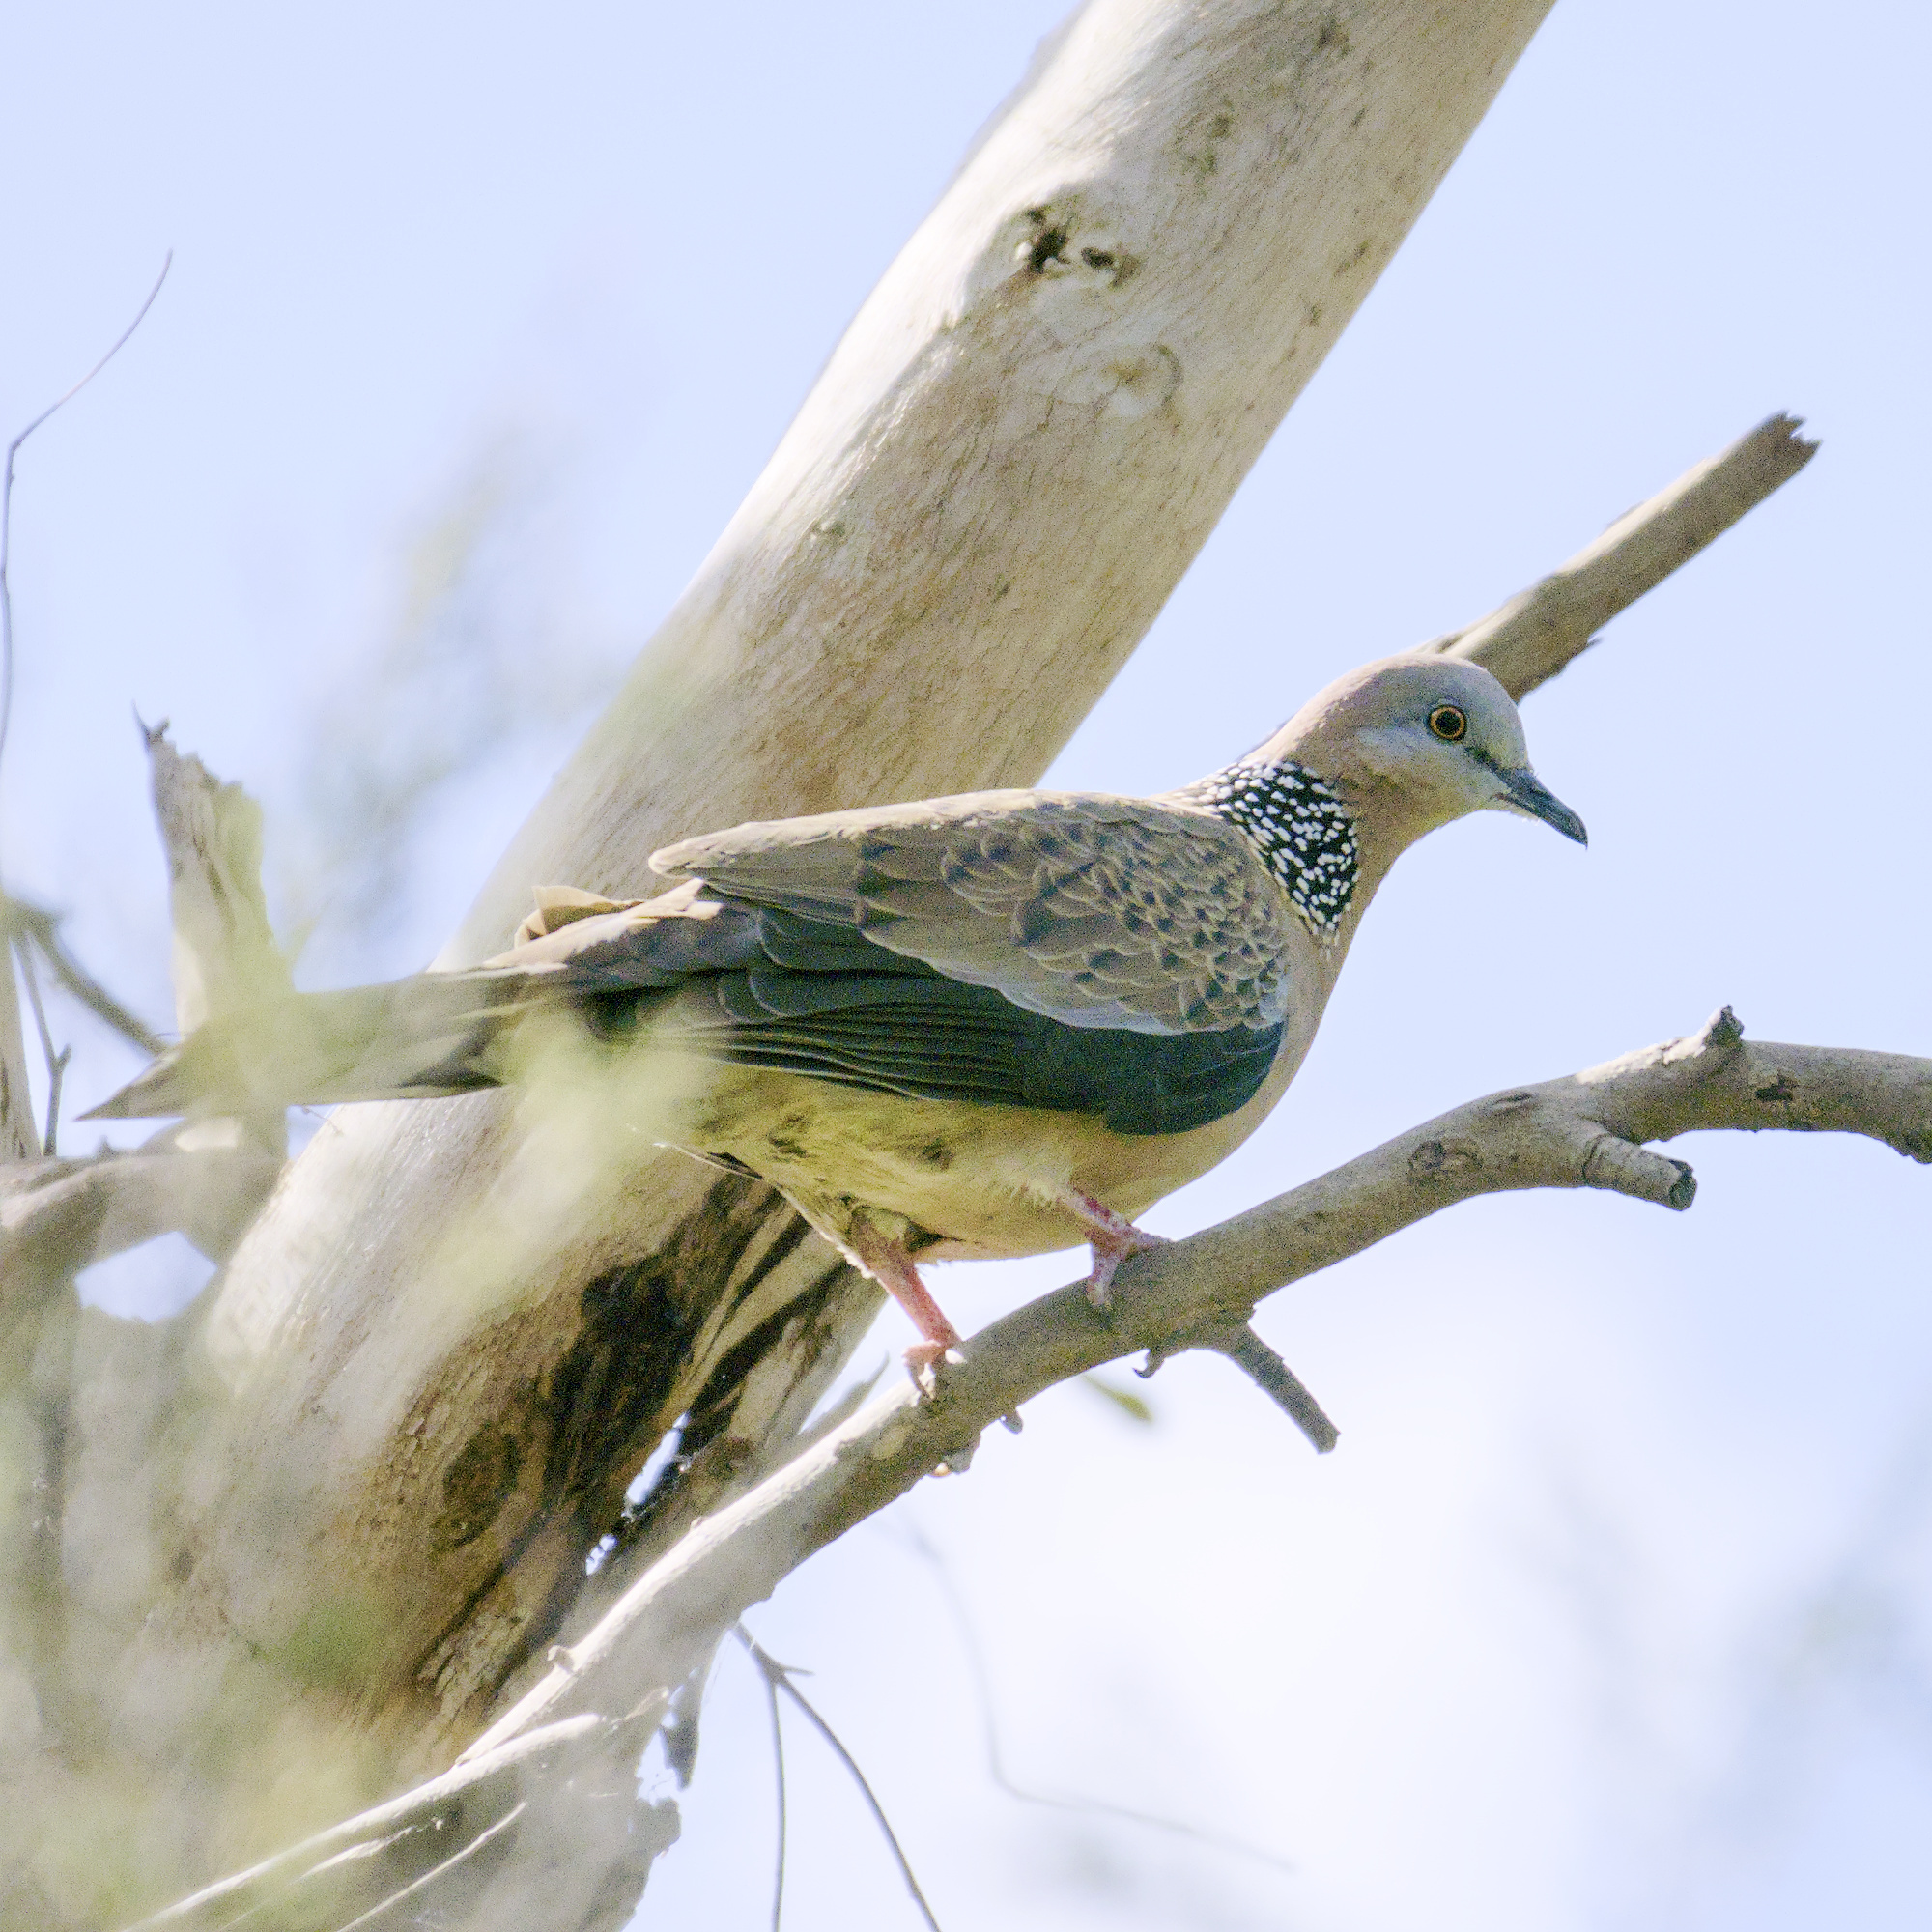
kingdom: Animalia
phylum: Chordata
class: Aves
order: Columbiformes
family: Columbidae
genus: Spilopelia
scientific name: Spilopelia chinensis
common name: Spotted dove
